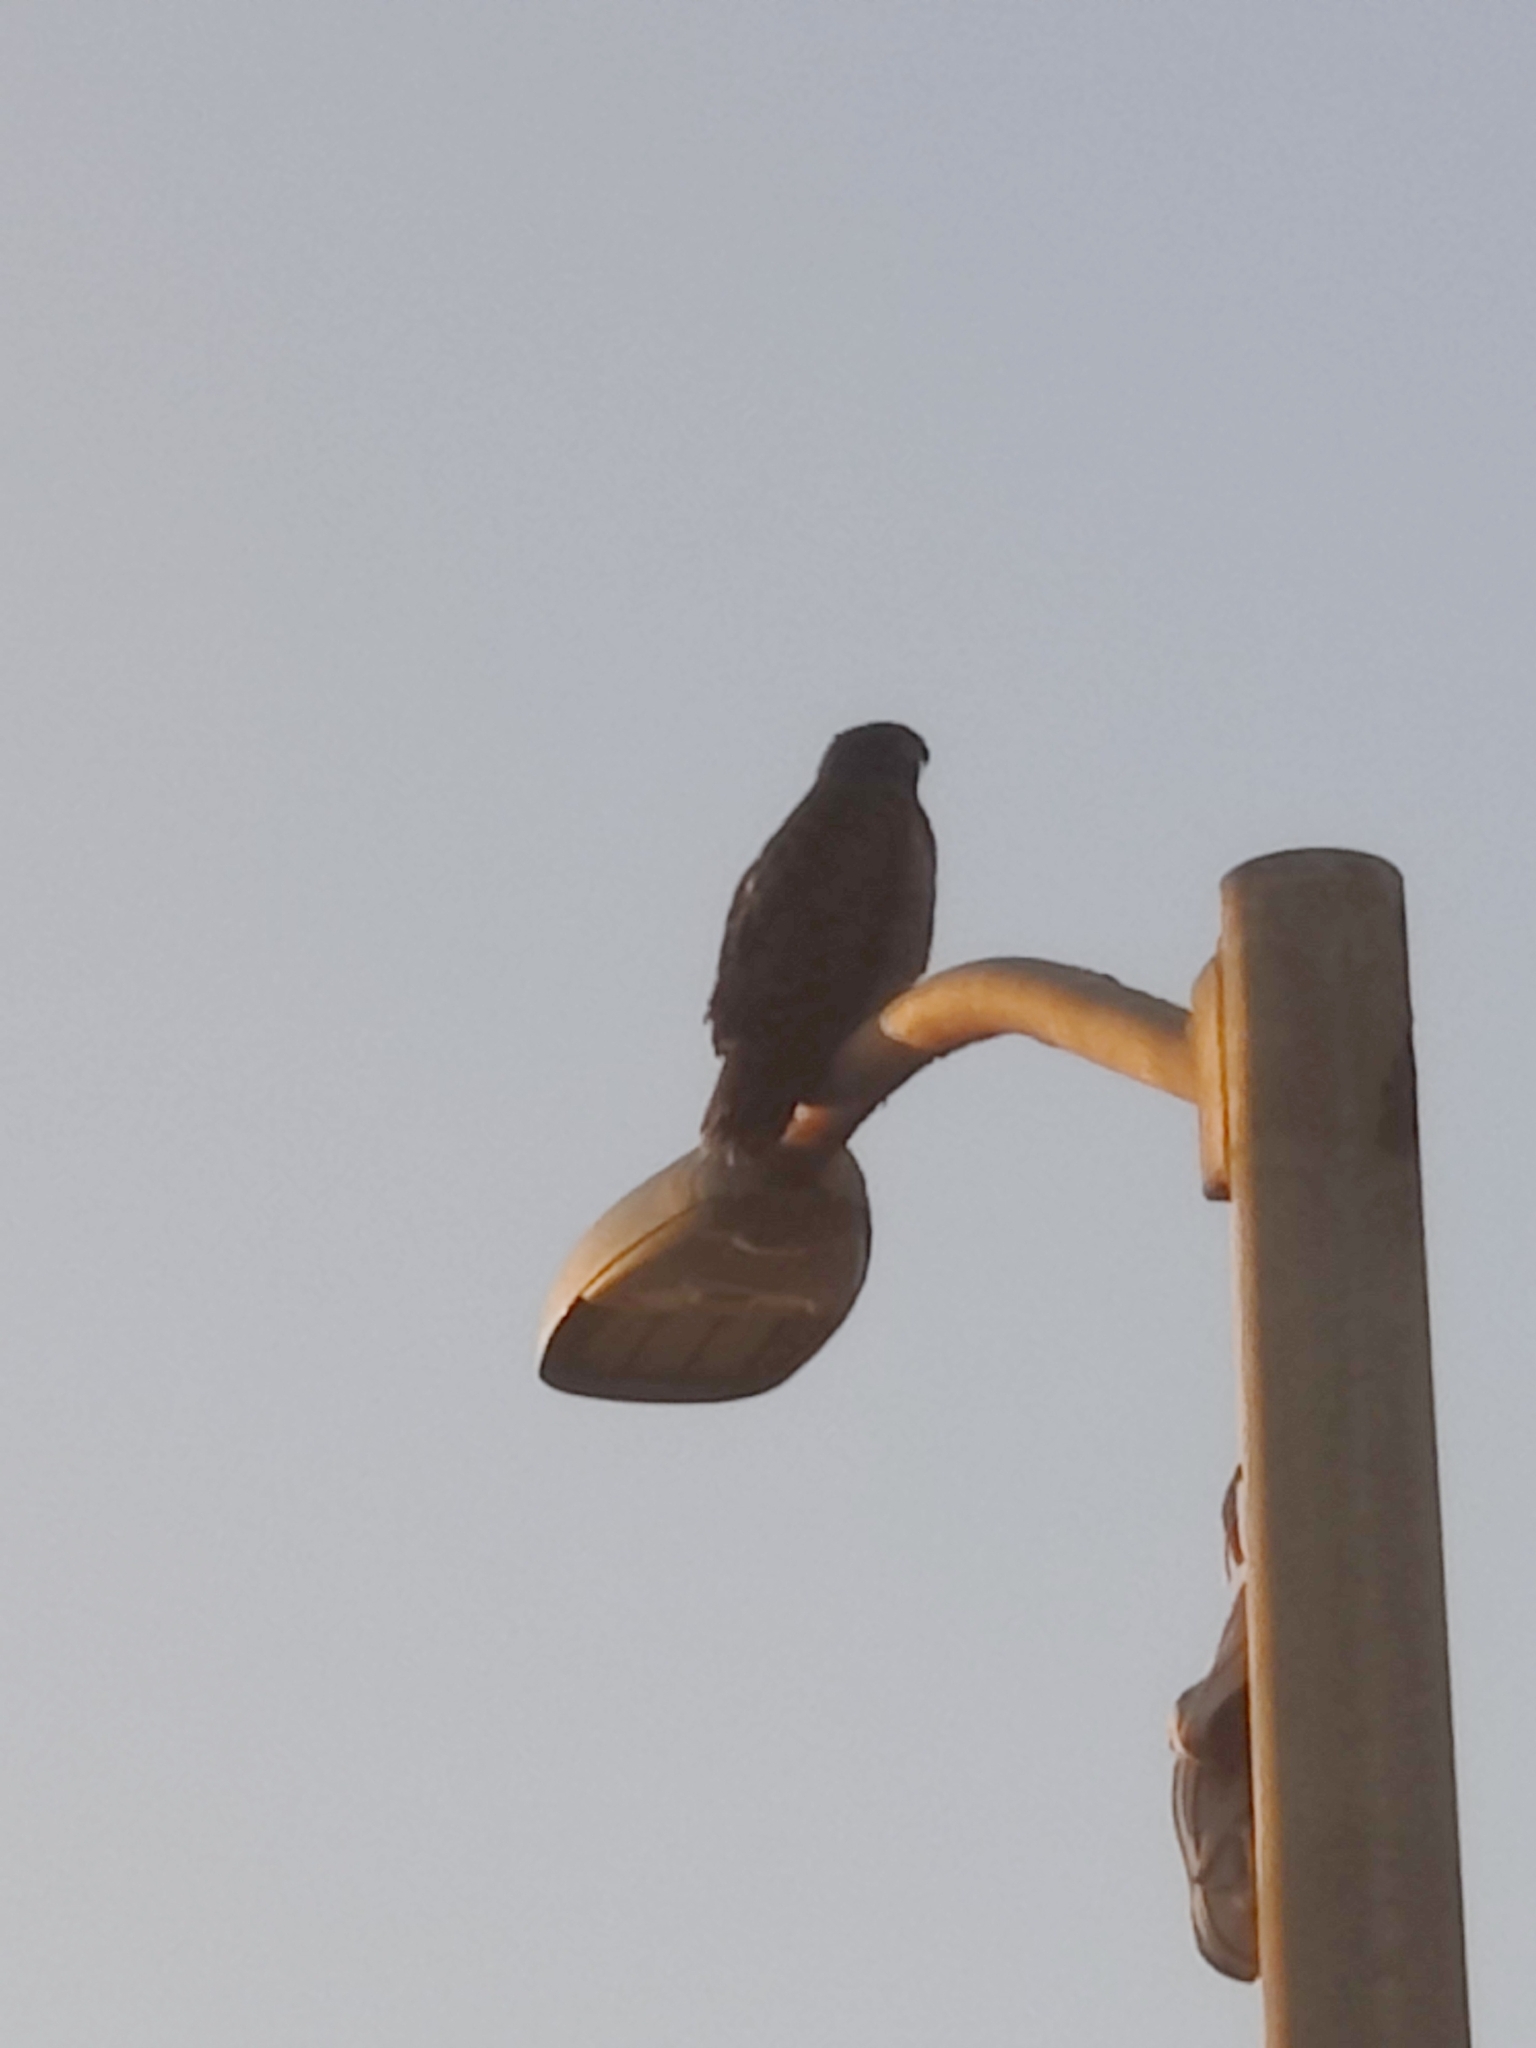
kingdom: Animalia
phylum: Chordata
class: Aves
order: Accipitriformes
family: Accipitridae
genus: Buteo
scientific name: Buteo jamaicensis
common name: Red-tailed hawk
